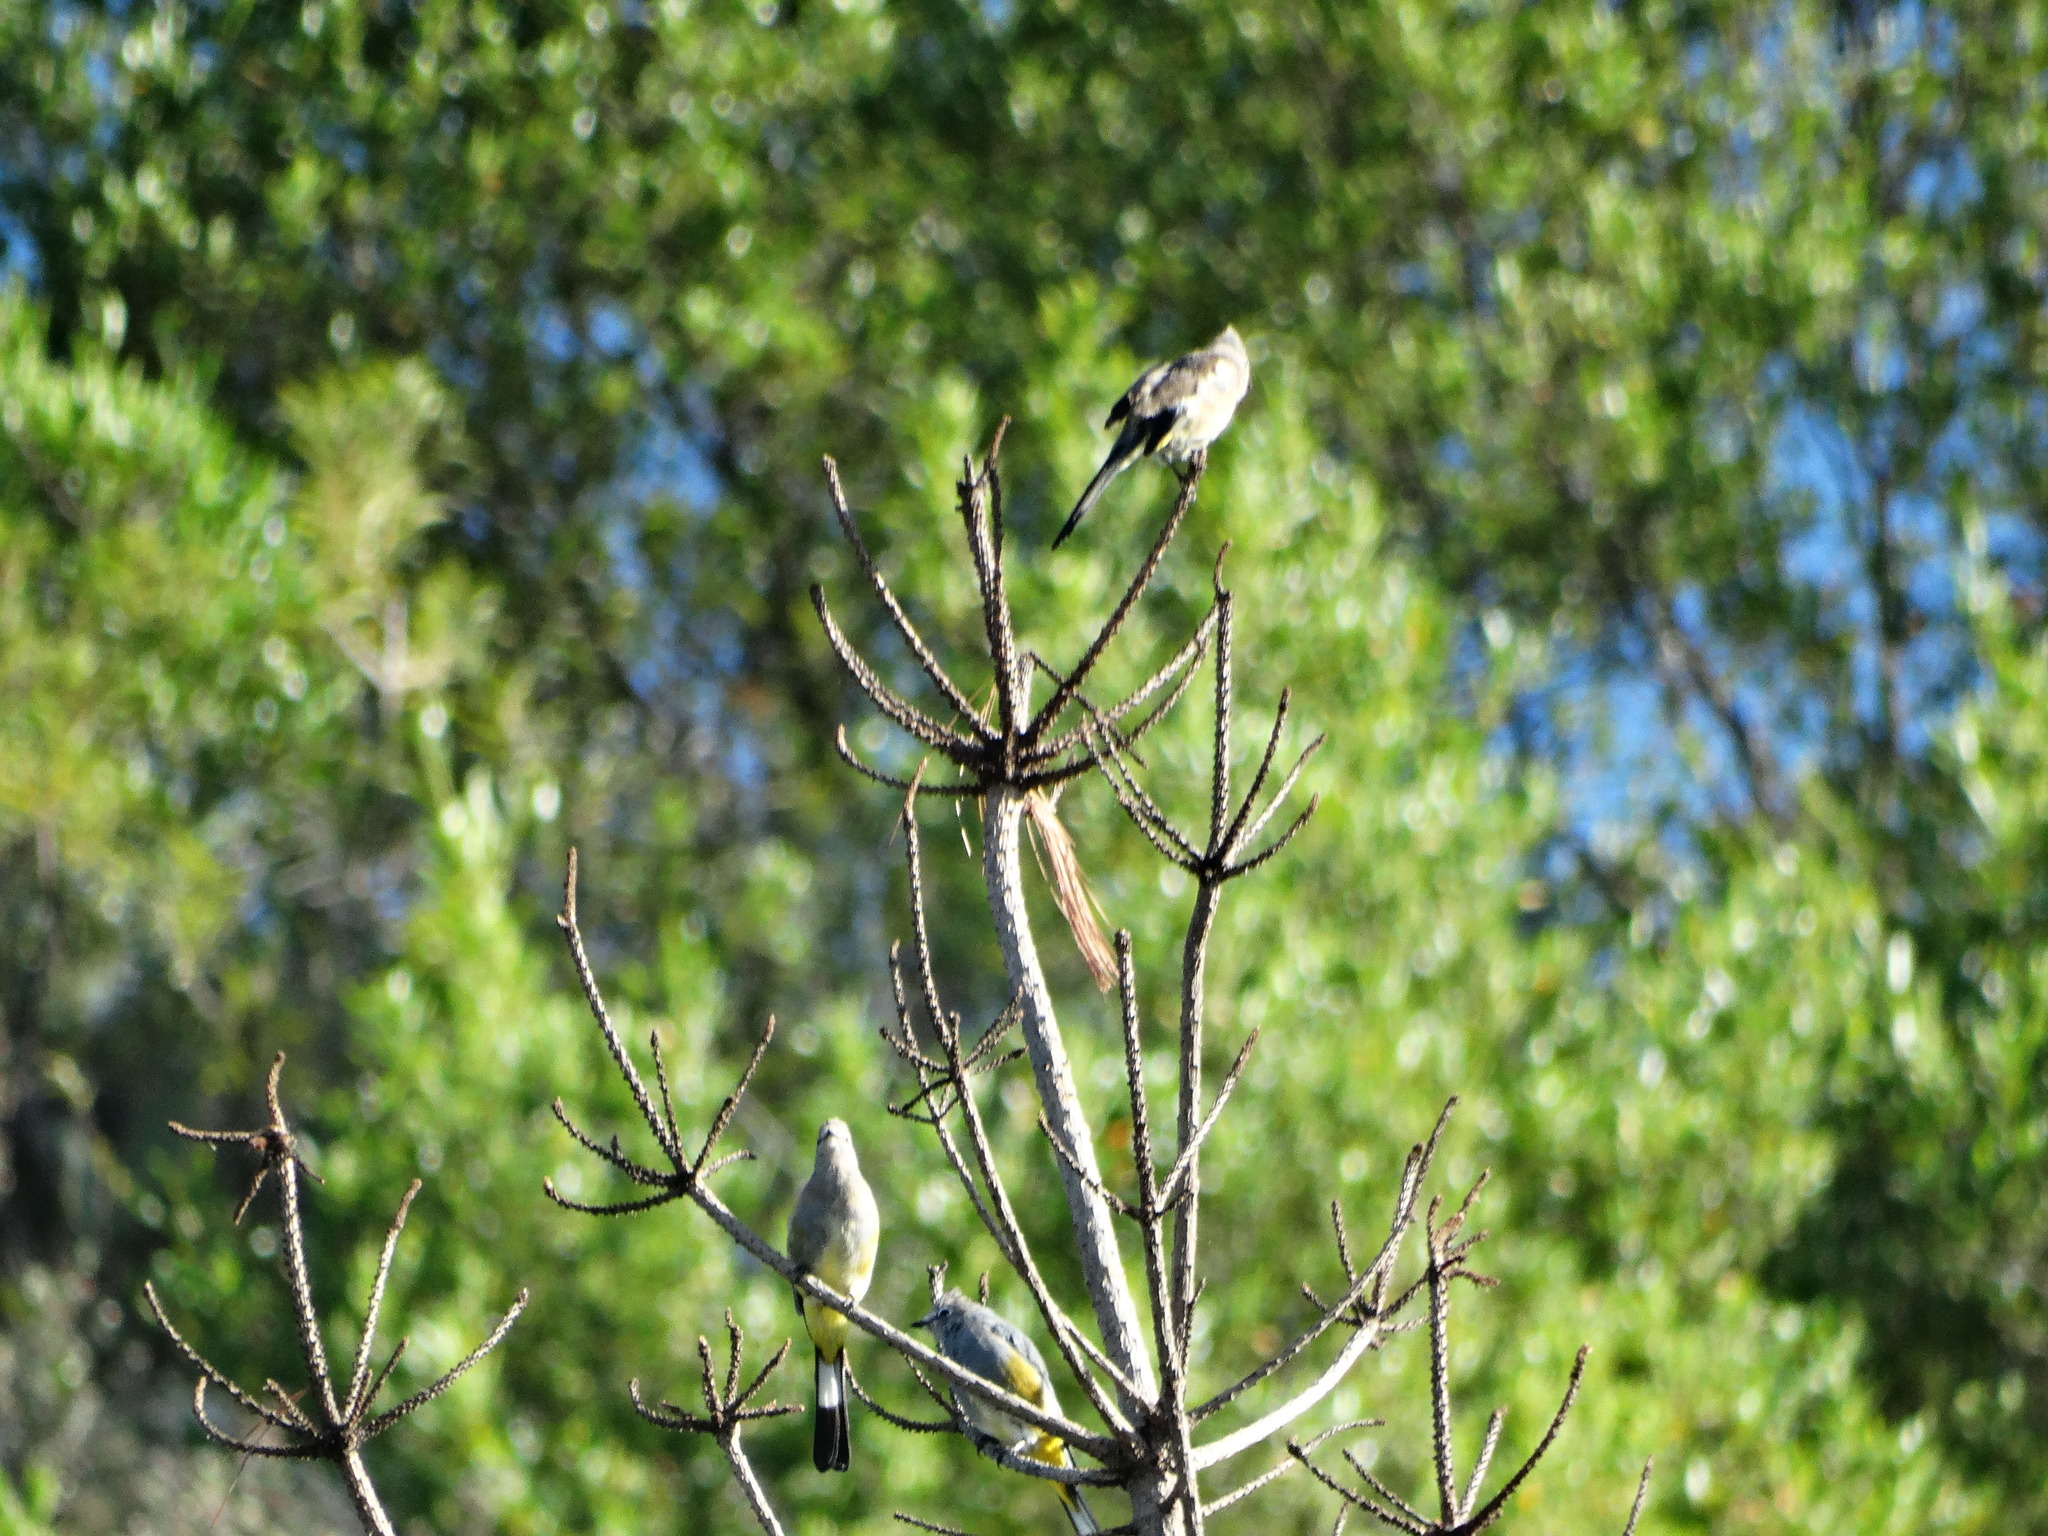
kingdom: Animalia
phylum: Chordata
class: Aves
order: Passeriformes
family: Ptilogonatidae
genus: Ptilogonys
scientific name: Ptilogonys cinereus
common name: Gray silky-flycatcher
